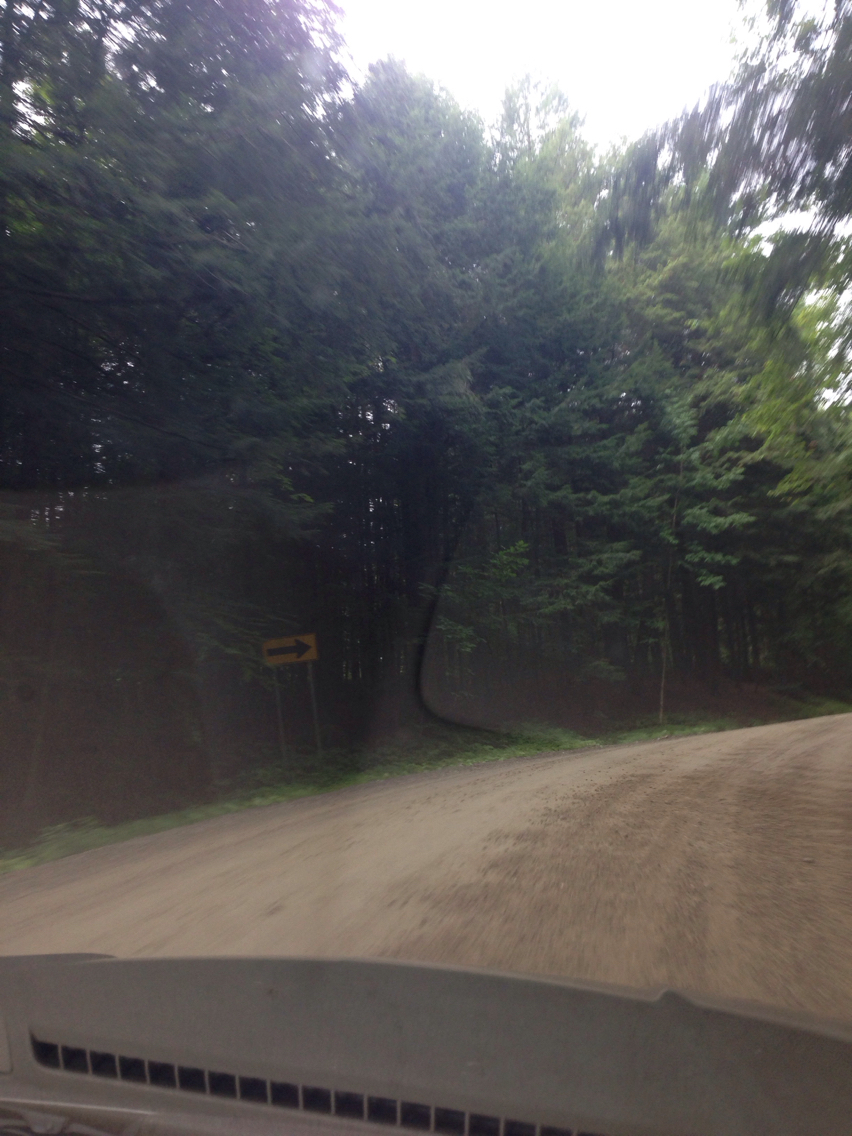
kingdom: Plantae
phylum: Tracheophyta
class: Pinopsida
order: Pinales
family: Pinaceae
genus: Tsuga
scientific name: Tsuga canadensis
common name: Eastern hemlock
